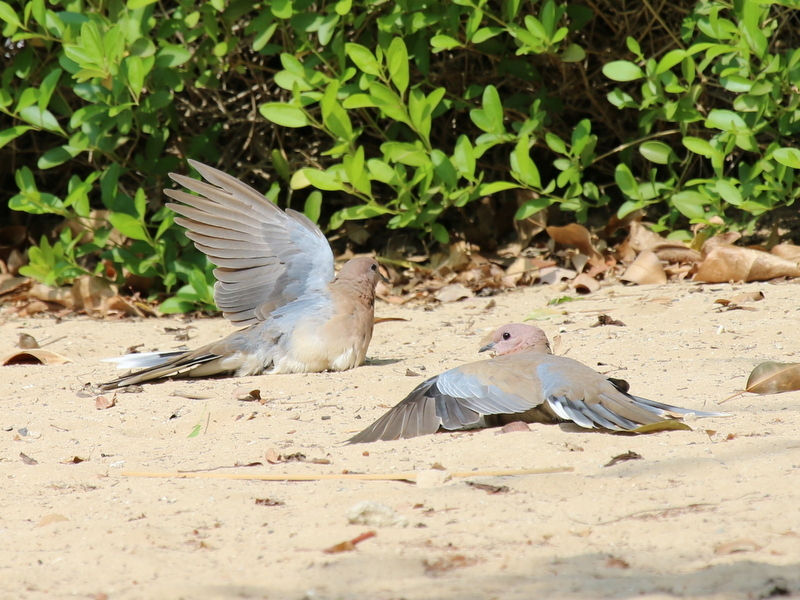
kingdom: Animalia
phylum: Chordata
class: Aves
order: Columbiformes
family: Columbidae
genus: Spilopelia
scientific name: Spilopelia senegalensis
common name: Laughing dove
